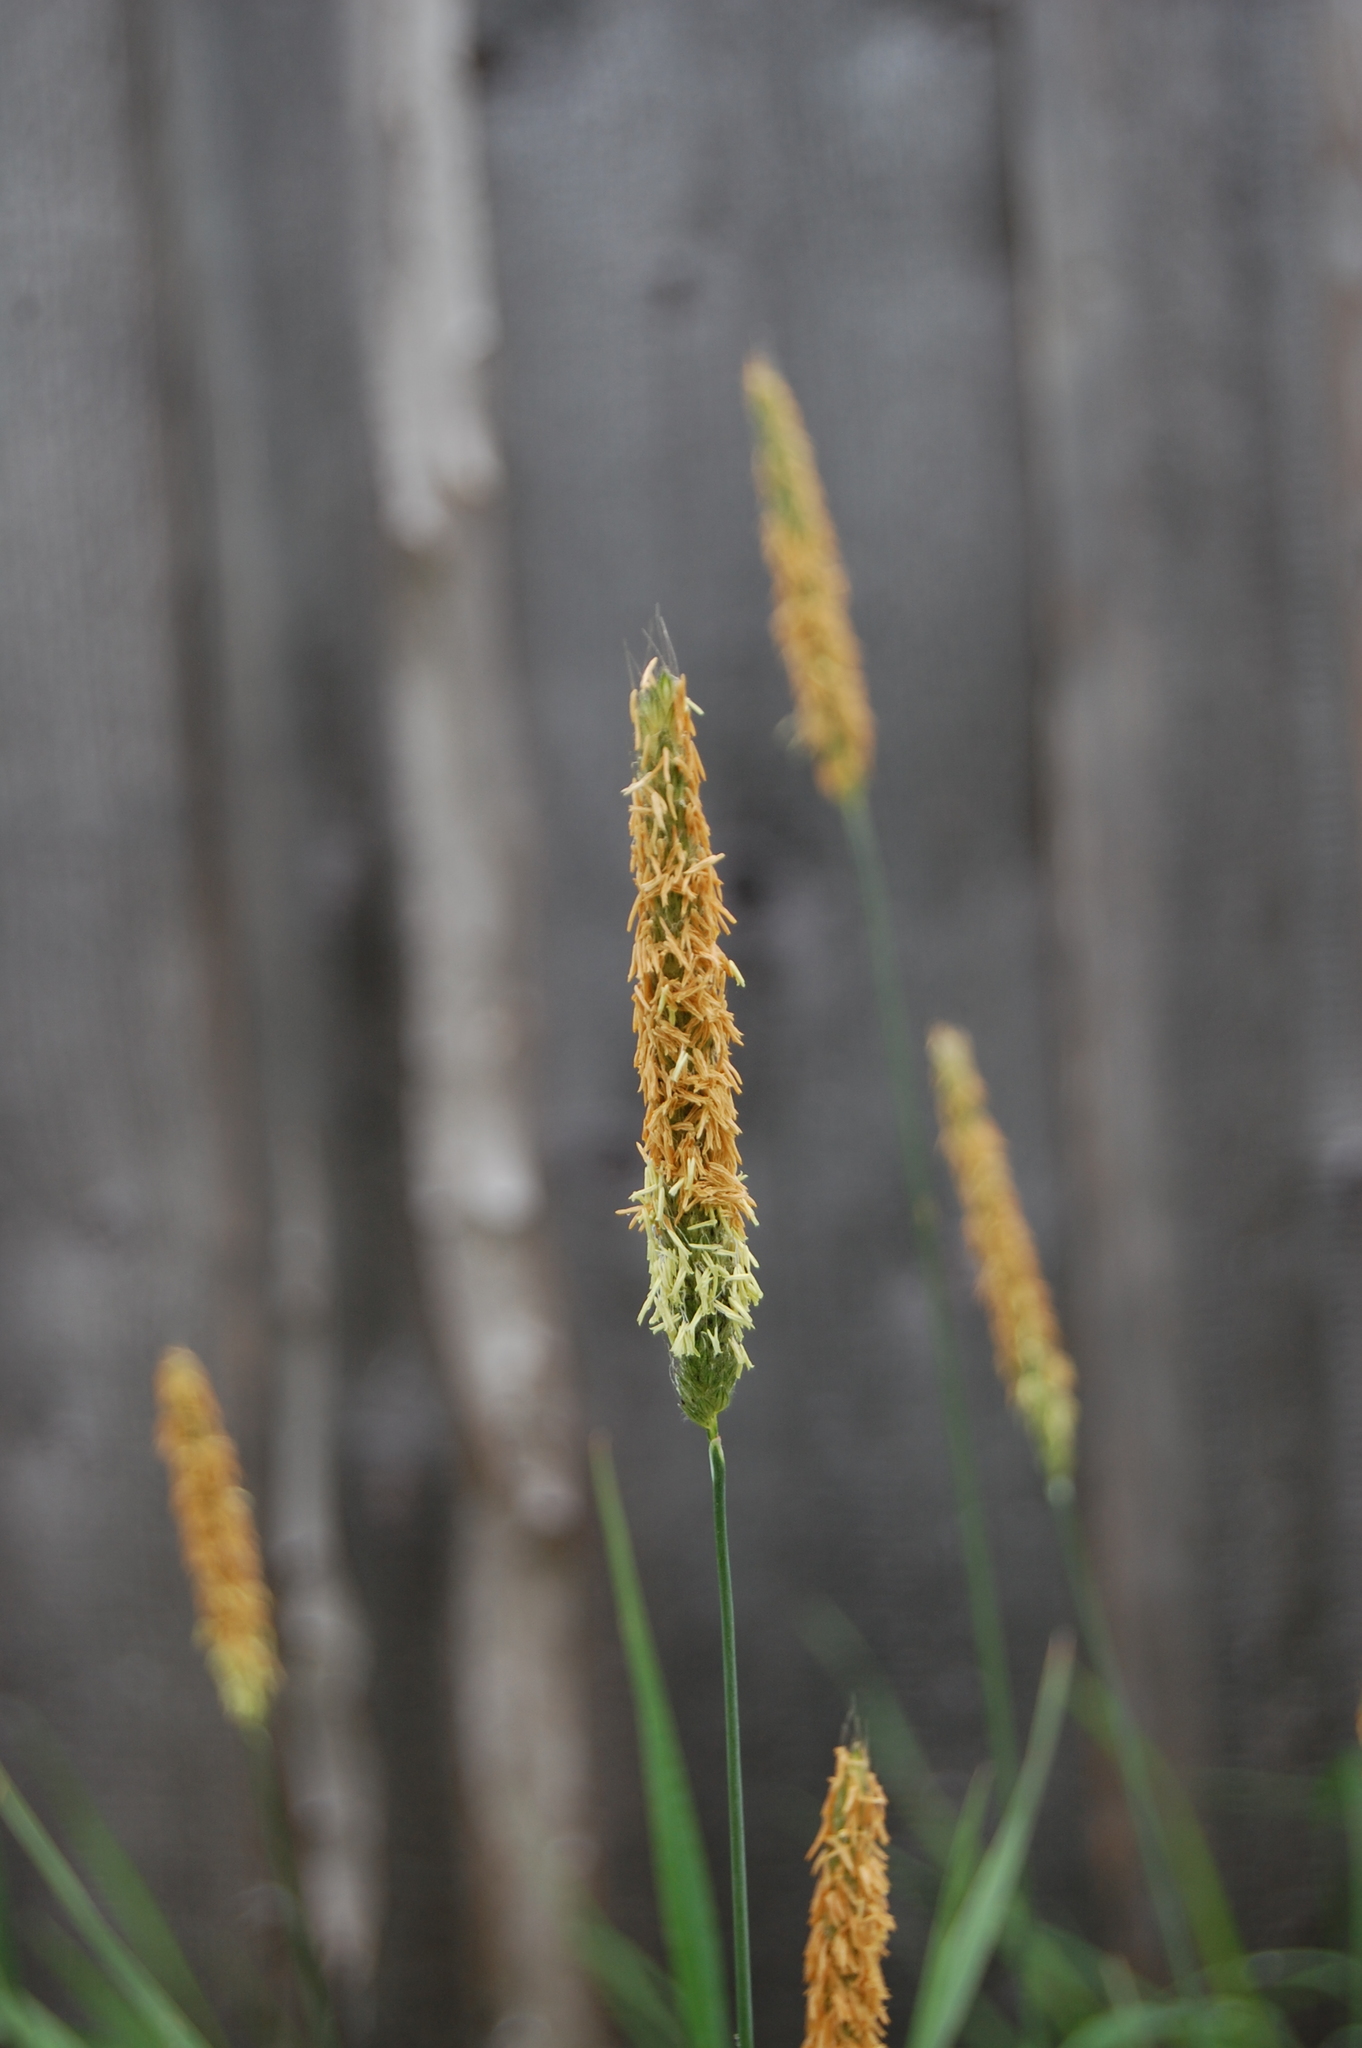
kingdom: Plantae
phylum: Tracheophyta
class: Liliopsida
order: Poales
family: Poaceae
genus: Alopecurus
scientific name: Alopecurus geniculatus
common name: Water foxtail
